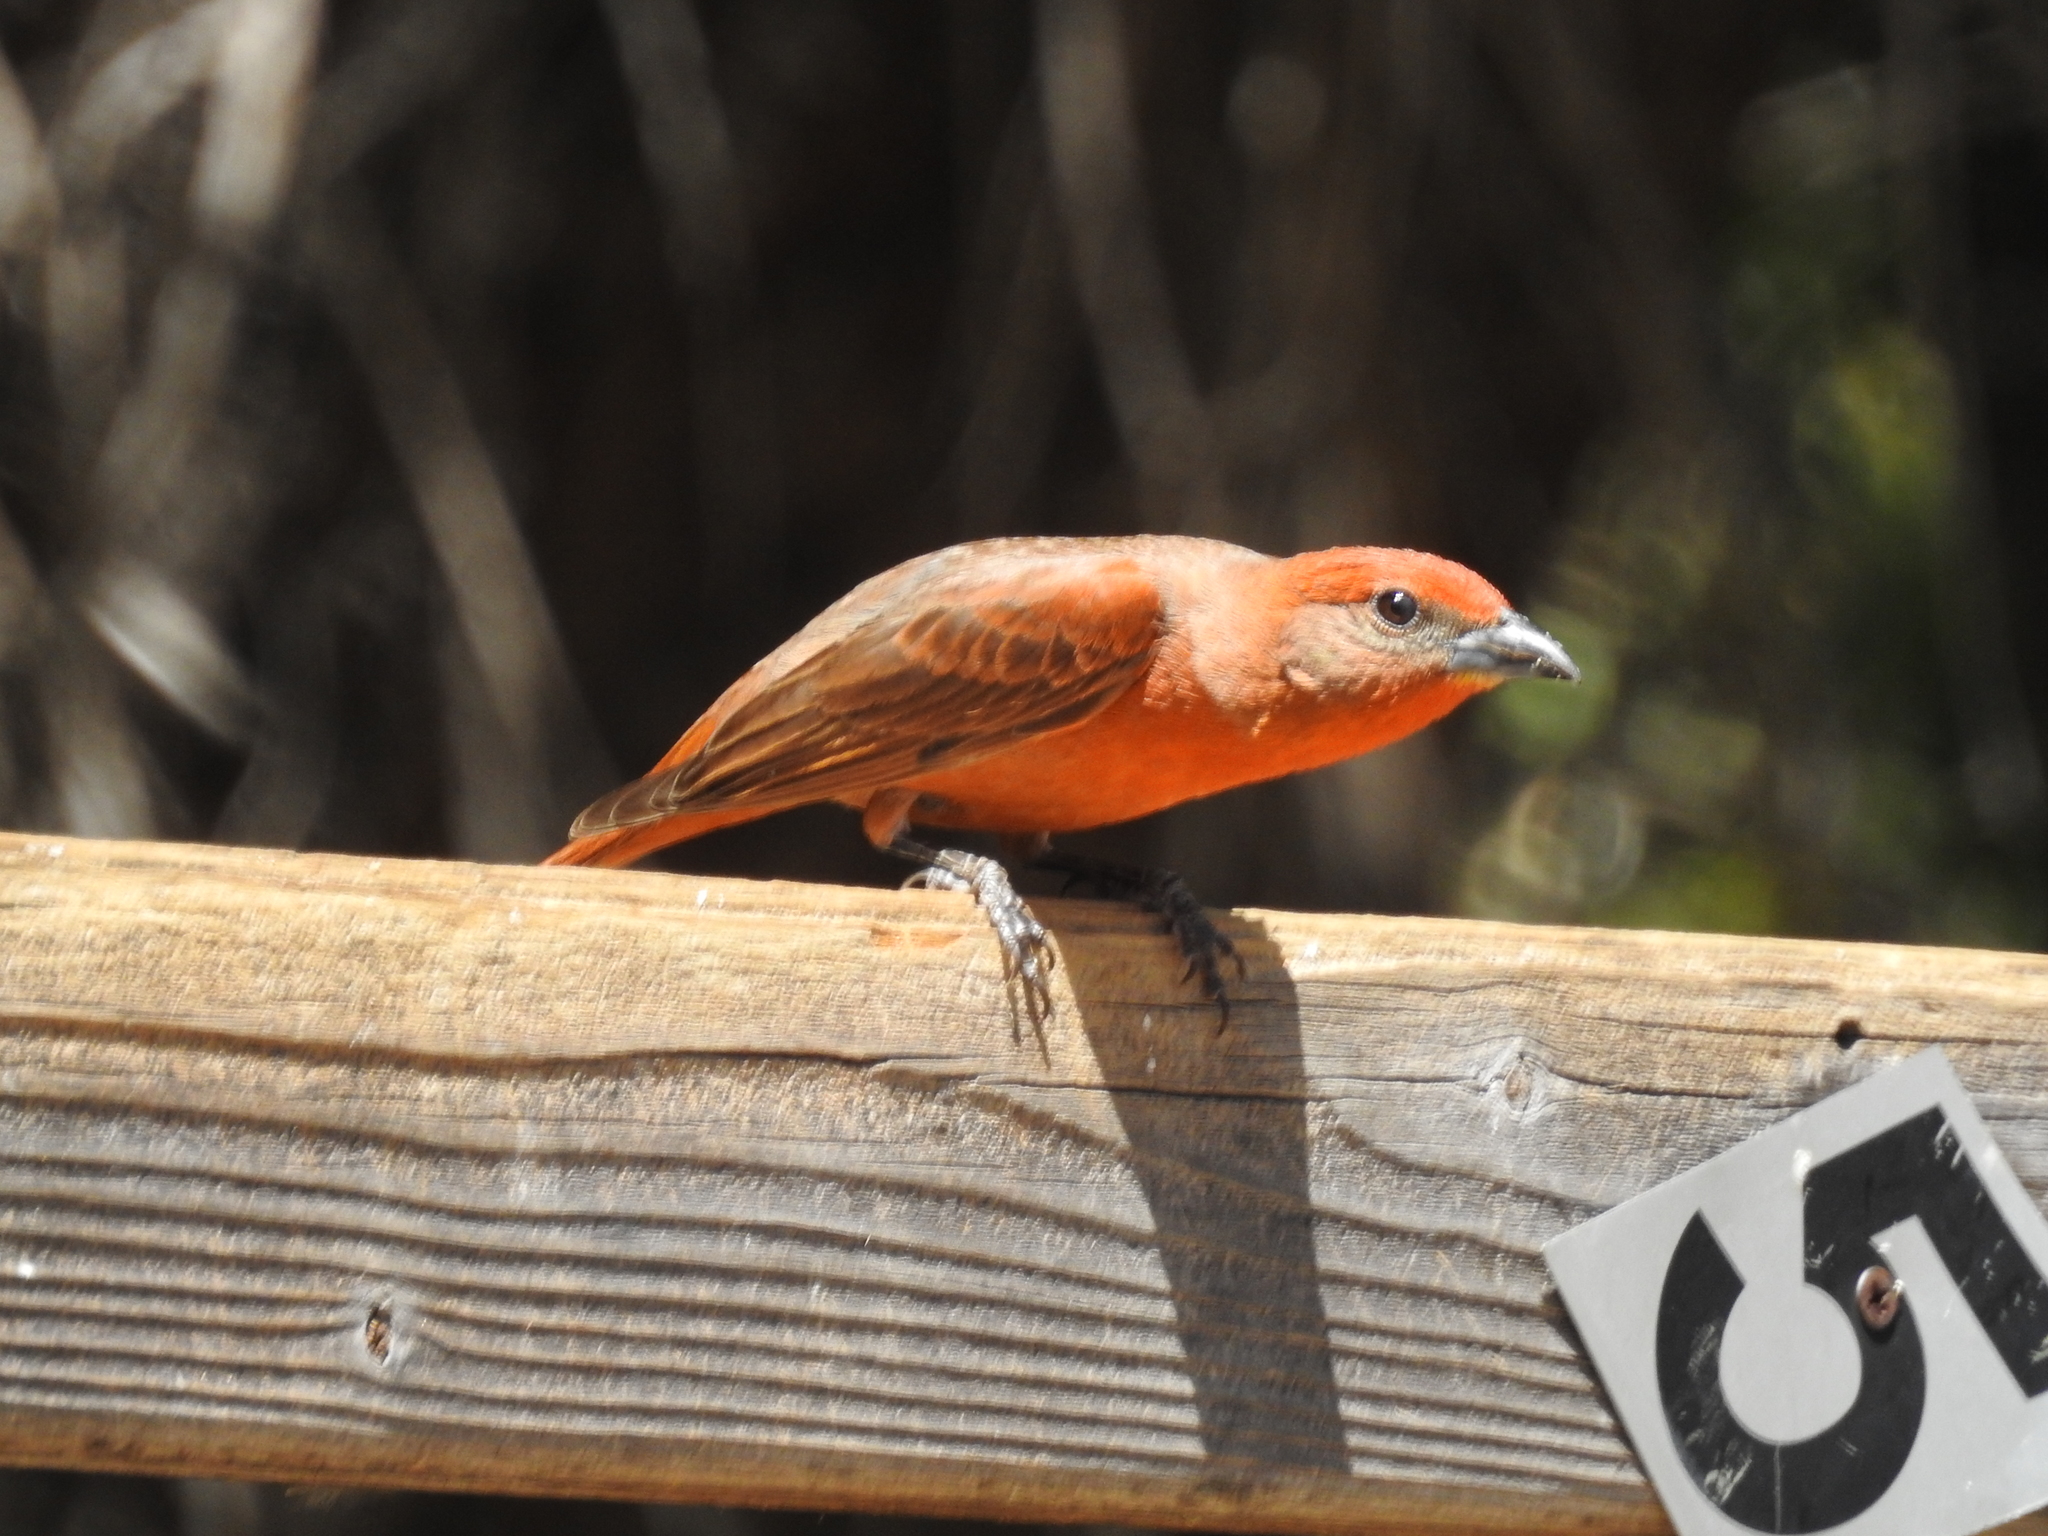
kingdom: Animalia
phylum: Chordata
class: Aves
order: Passeriformes
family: Cardinalidae
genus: Piranga
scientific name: Piranga flava
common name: Red tanager
